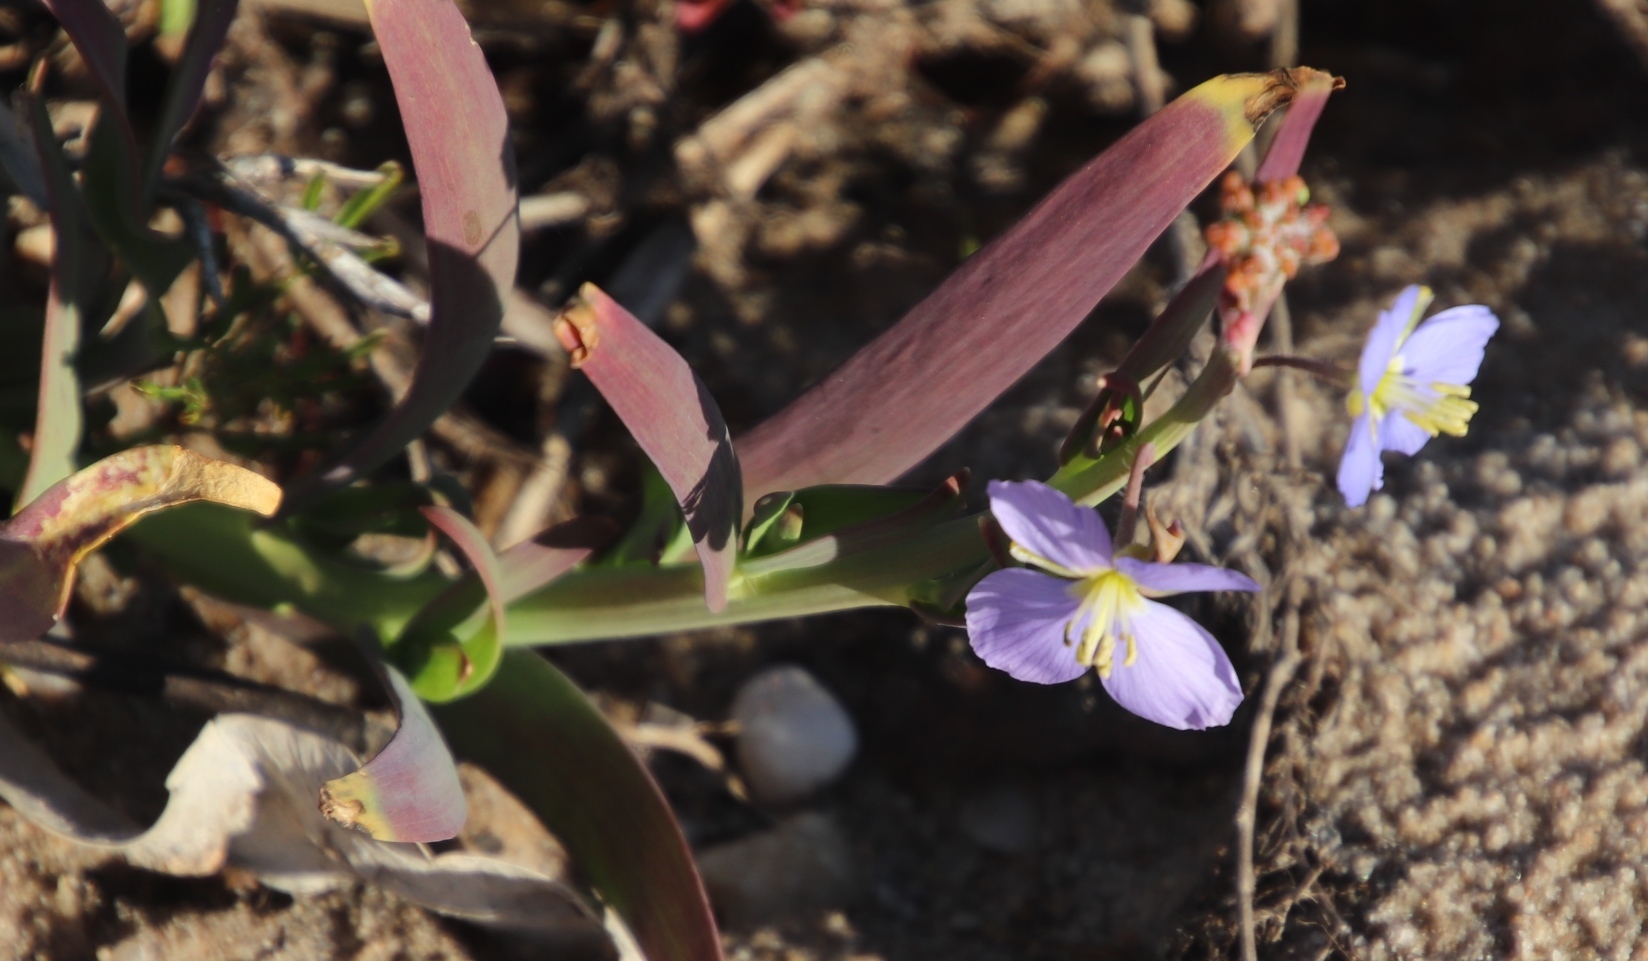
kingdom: Plantae
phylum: Tracheophyta
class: Magnoliopsida
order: Brassicales
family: Brassicaceae
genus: Heliophila
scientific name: Heliophila africana
